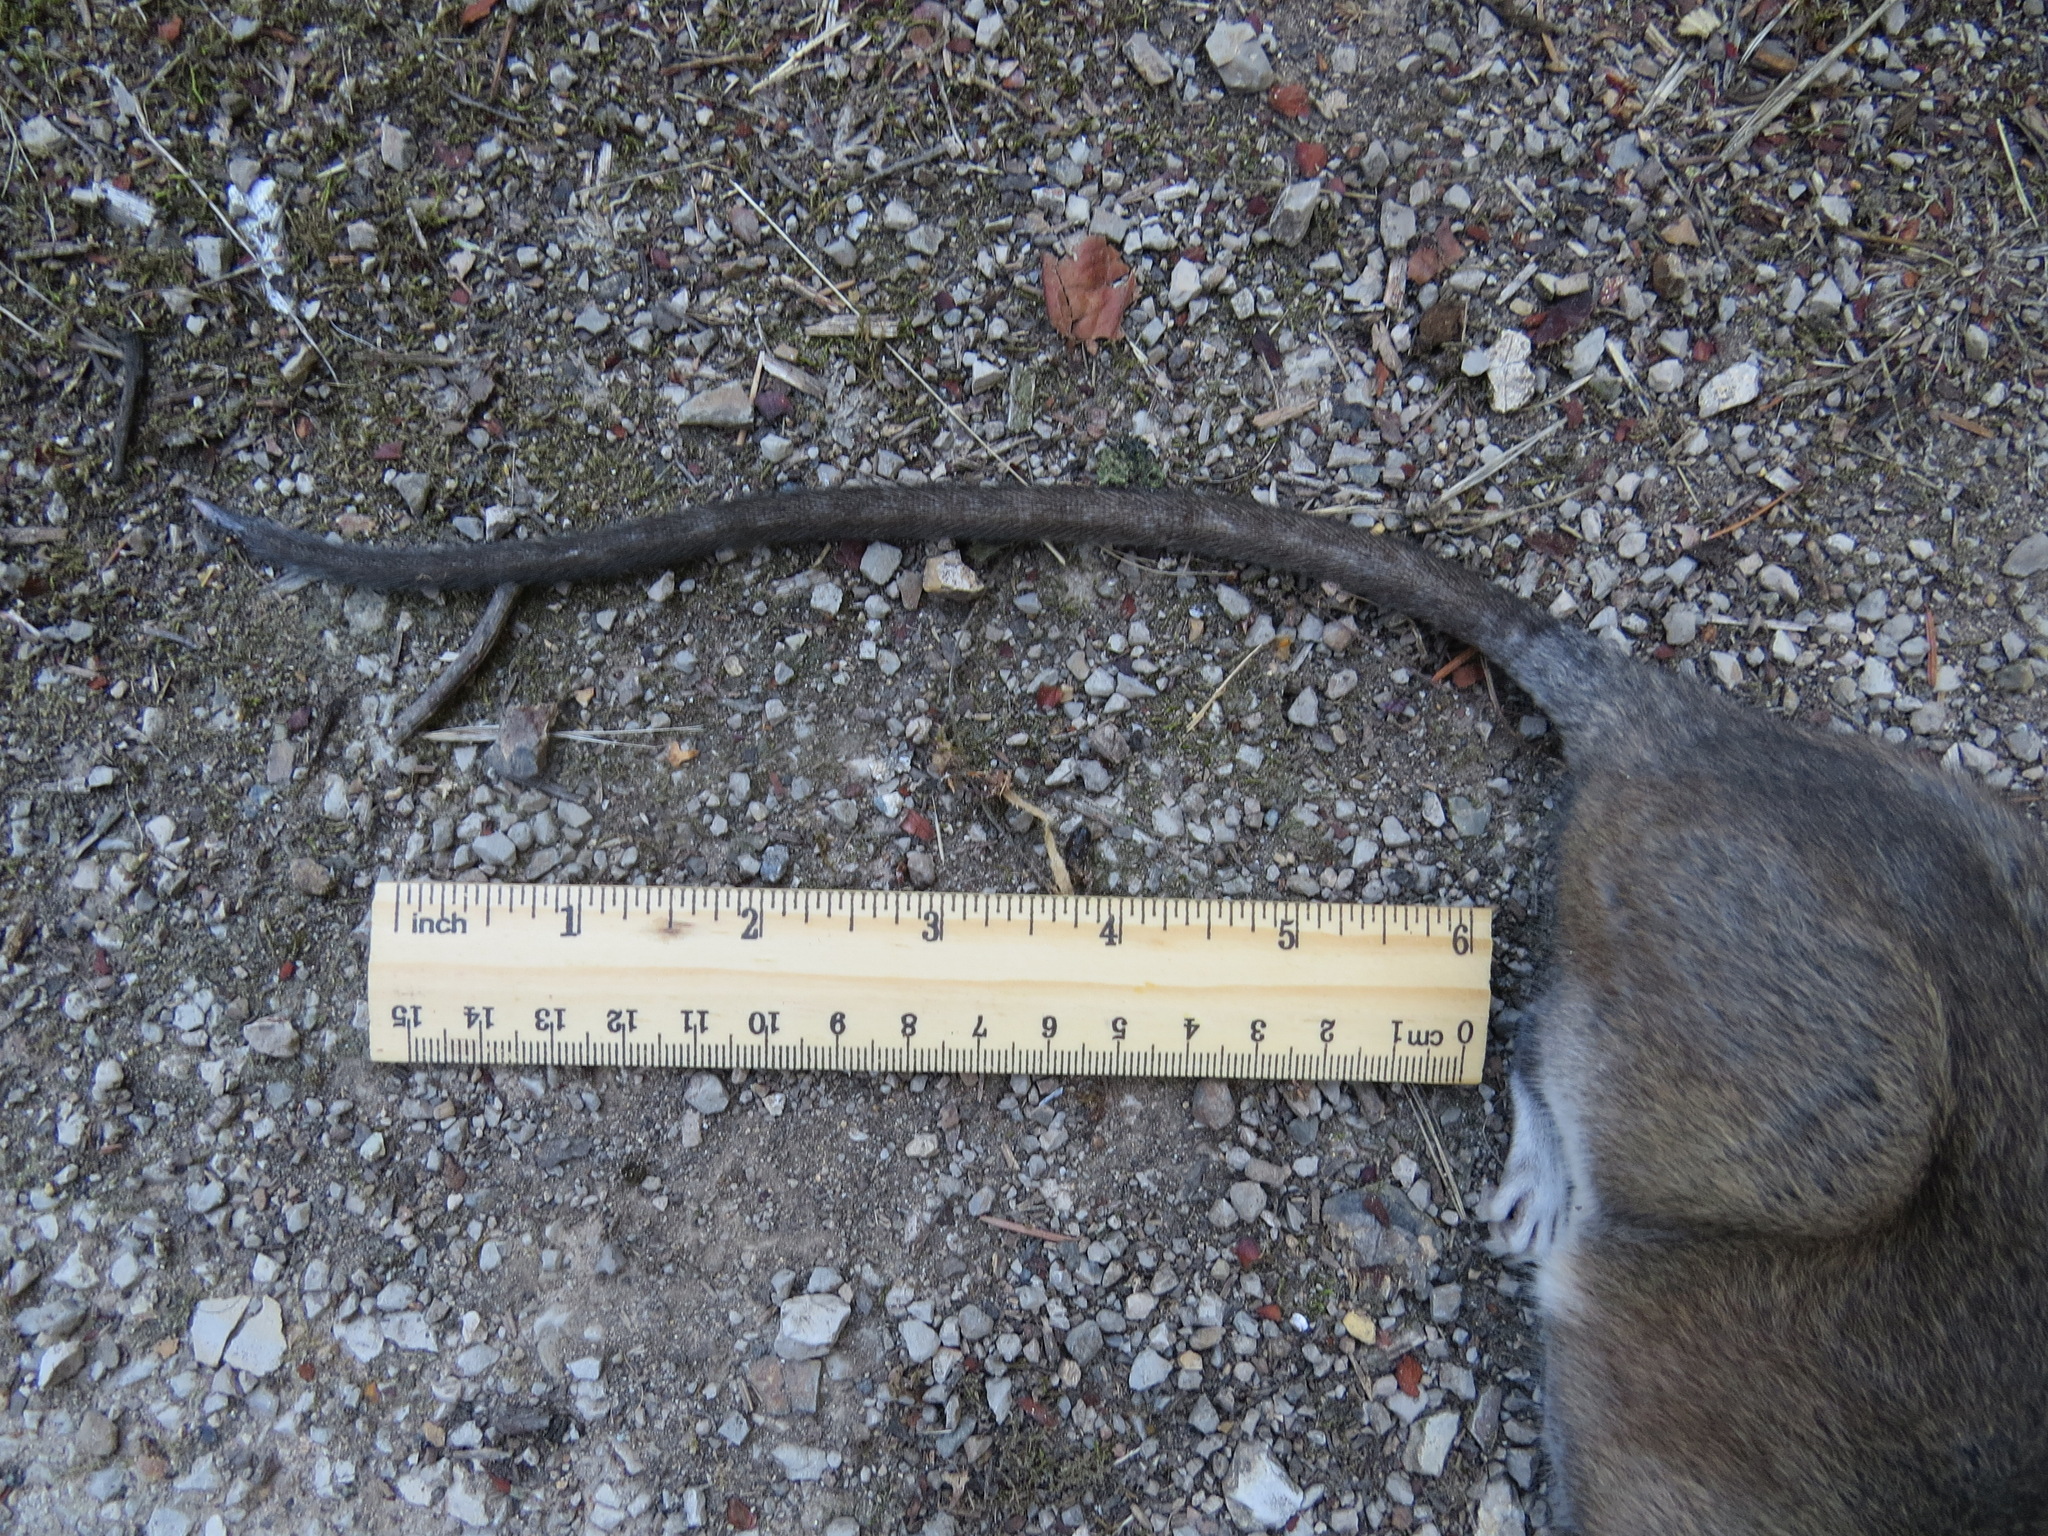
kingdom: Animalia
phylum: Chordata
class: Mammalia
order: Rodentia
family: Cricetidae
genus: Neotoma
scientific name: Neotoma fuscipes
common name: Dusky-footed woodrat
